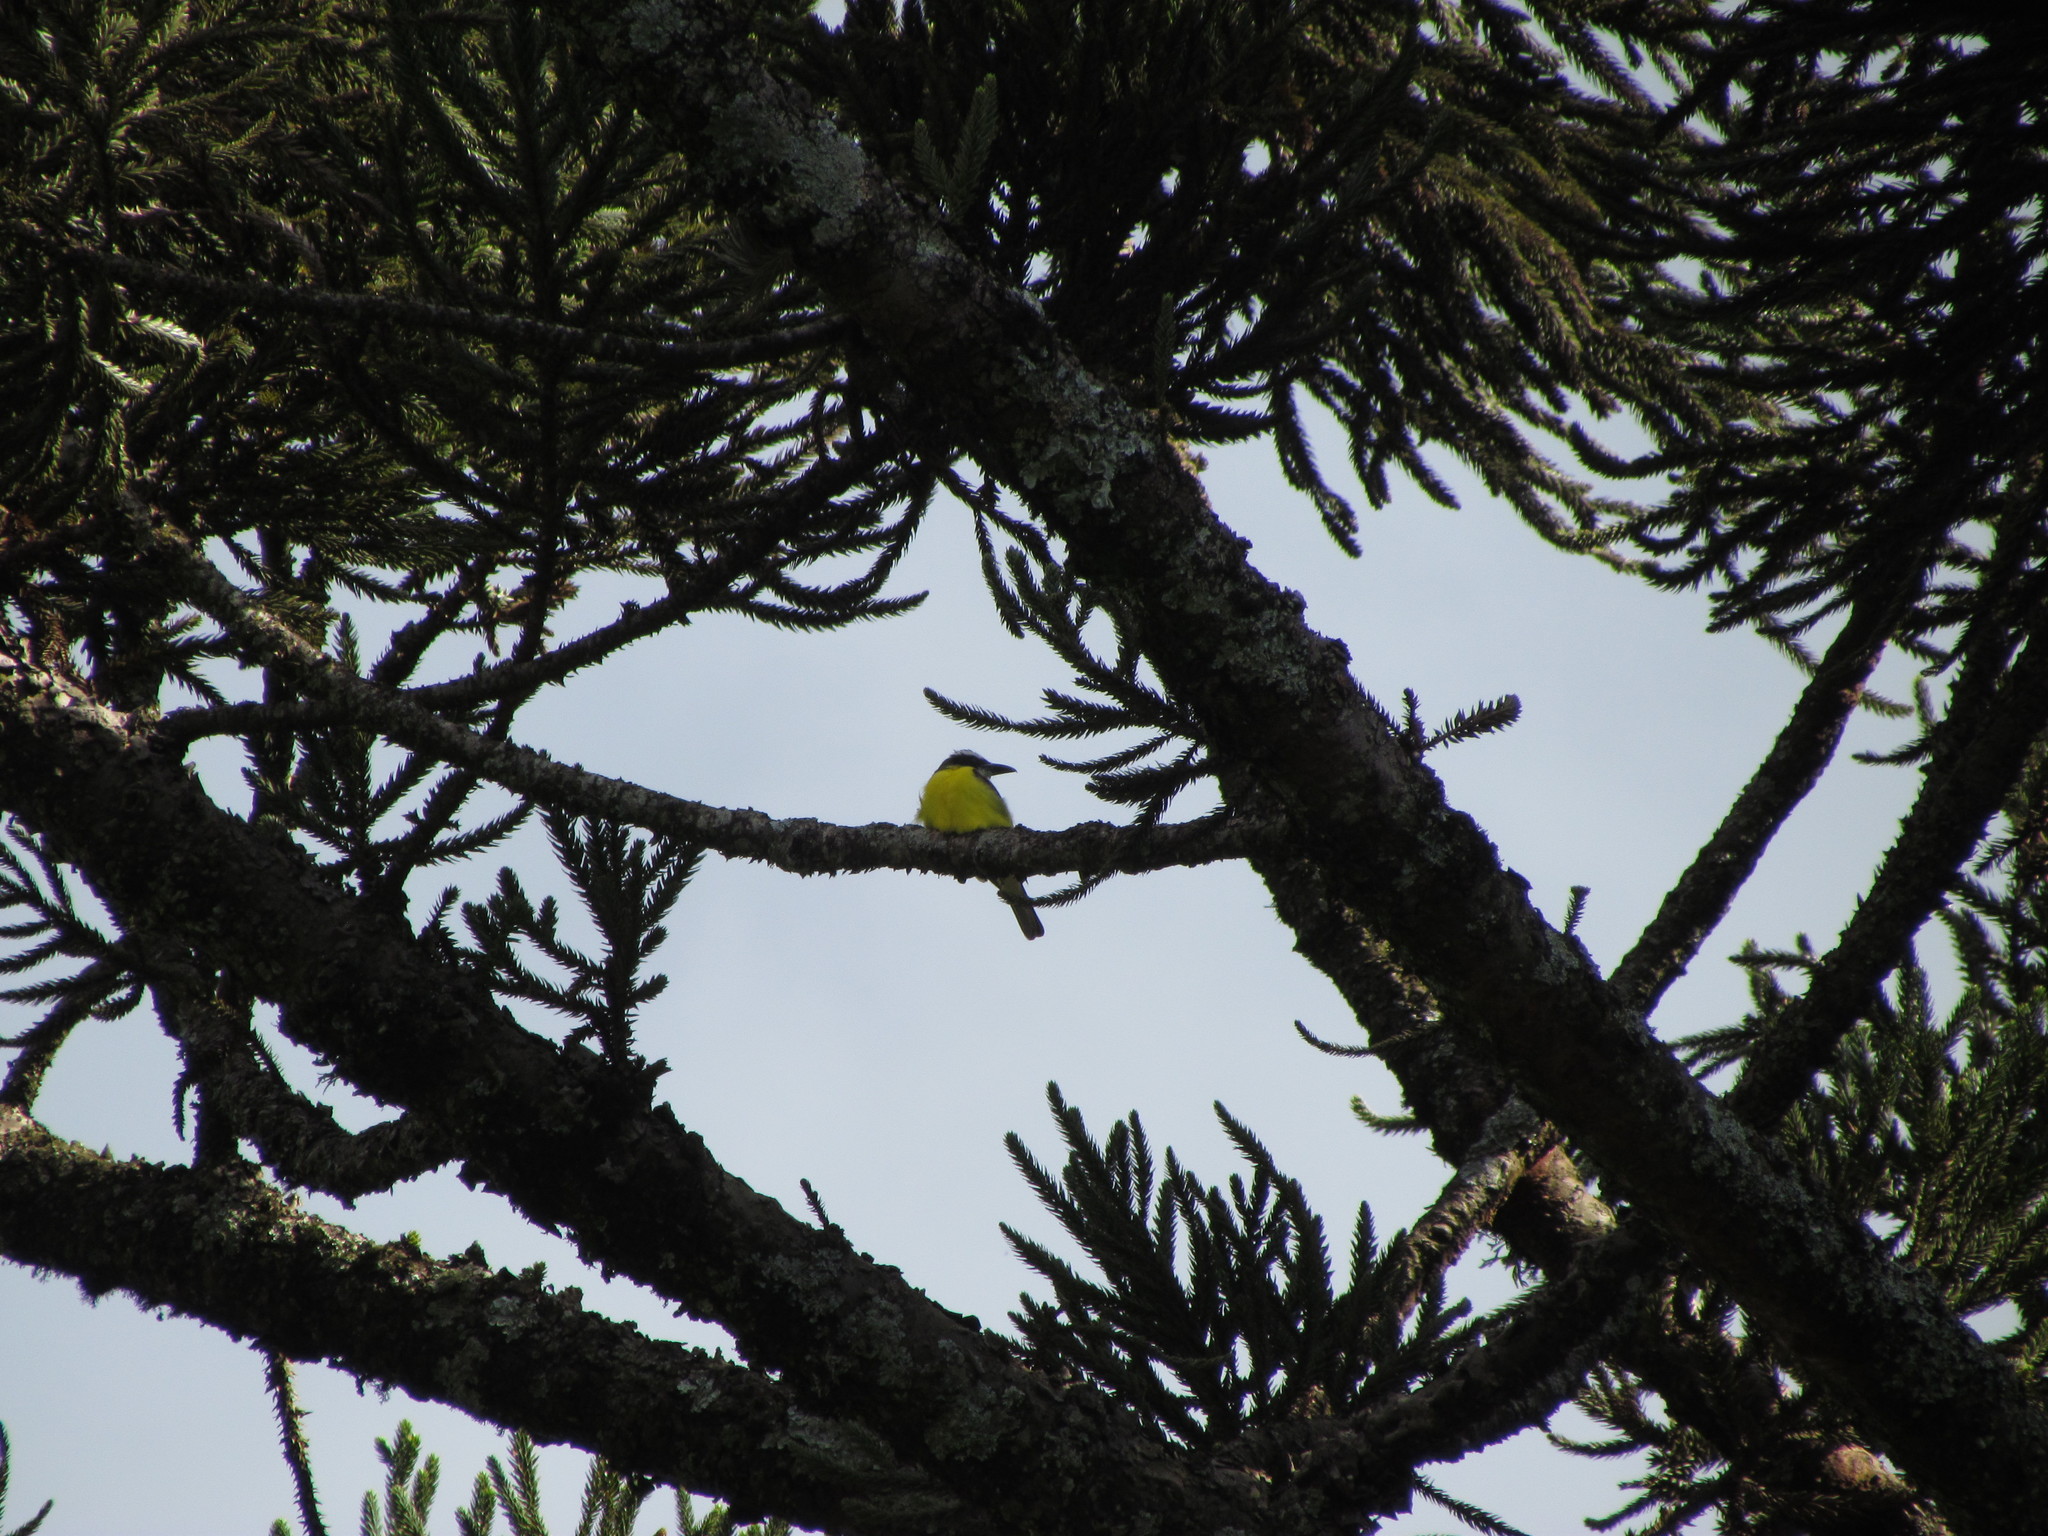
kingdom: Animalia
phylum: Chordata
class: Aves
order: Passeriformes
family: Tyrannidae
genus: Megarynchus
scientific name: Megarynchus pitangua
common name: Boat-billed flycatcher
